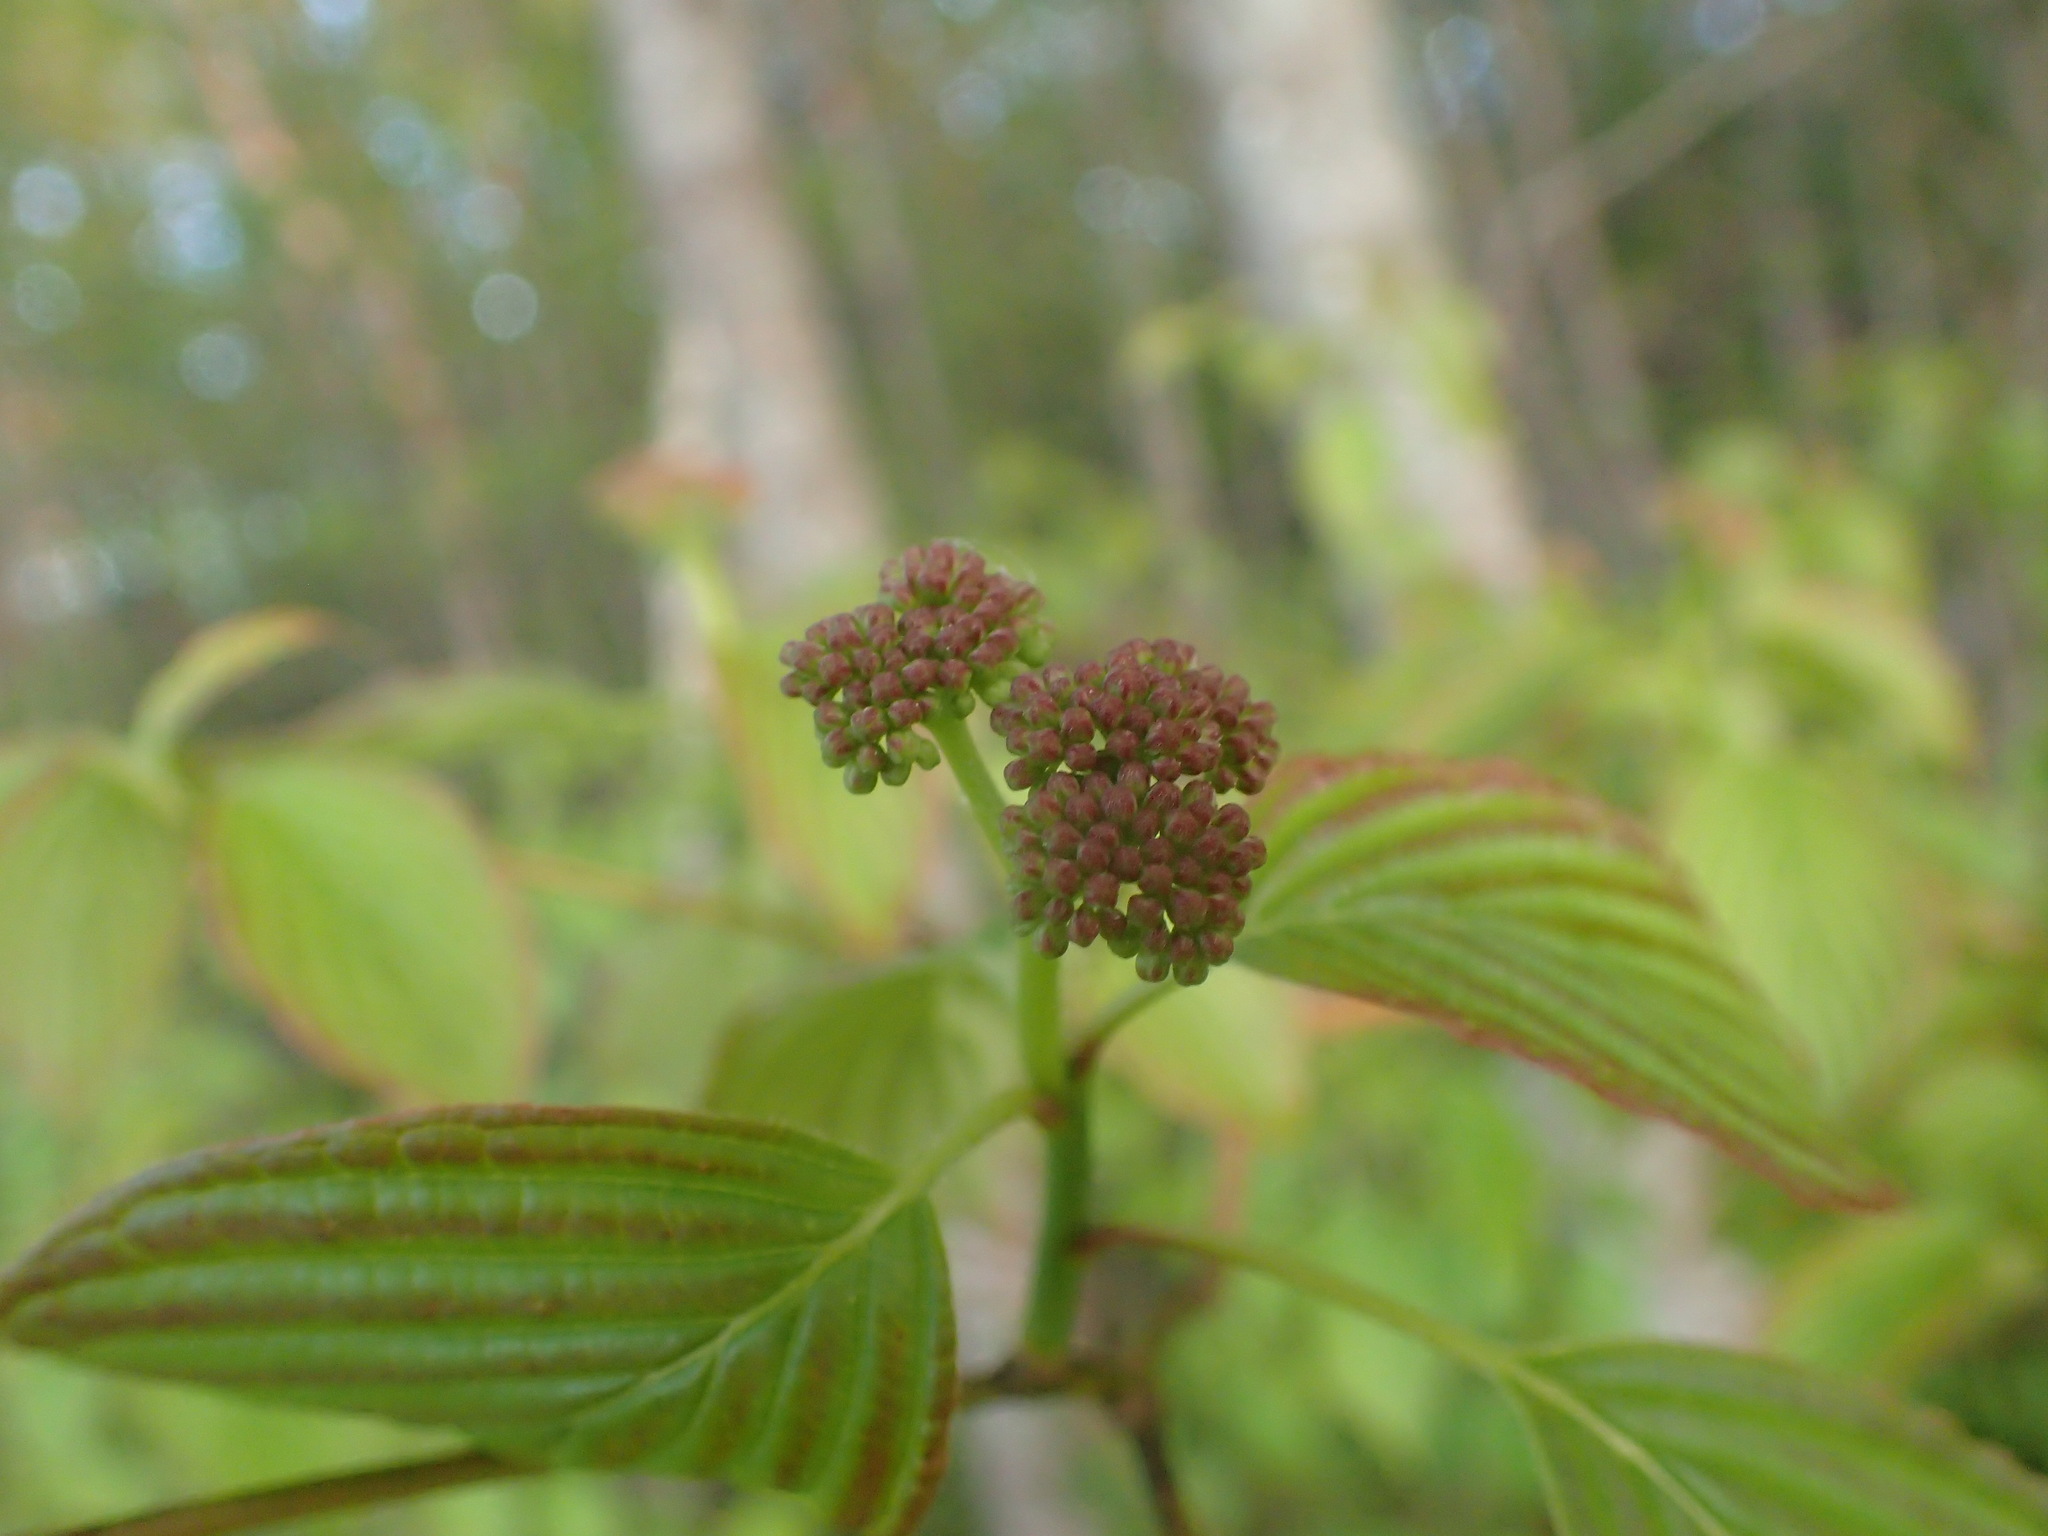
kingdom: Plantae
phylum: Tracheophyta
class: Magnoliopsida
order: Cornales
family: Cornaceae
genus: Cornus
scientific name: Cornus alternifolia
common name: Pagoda dogwood
